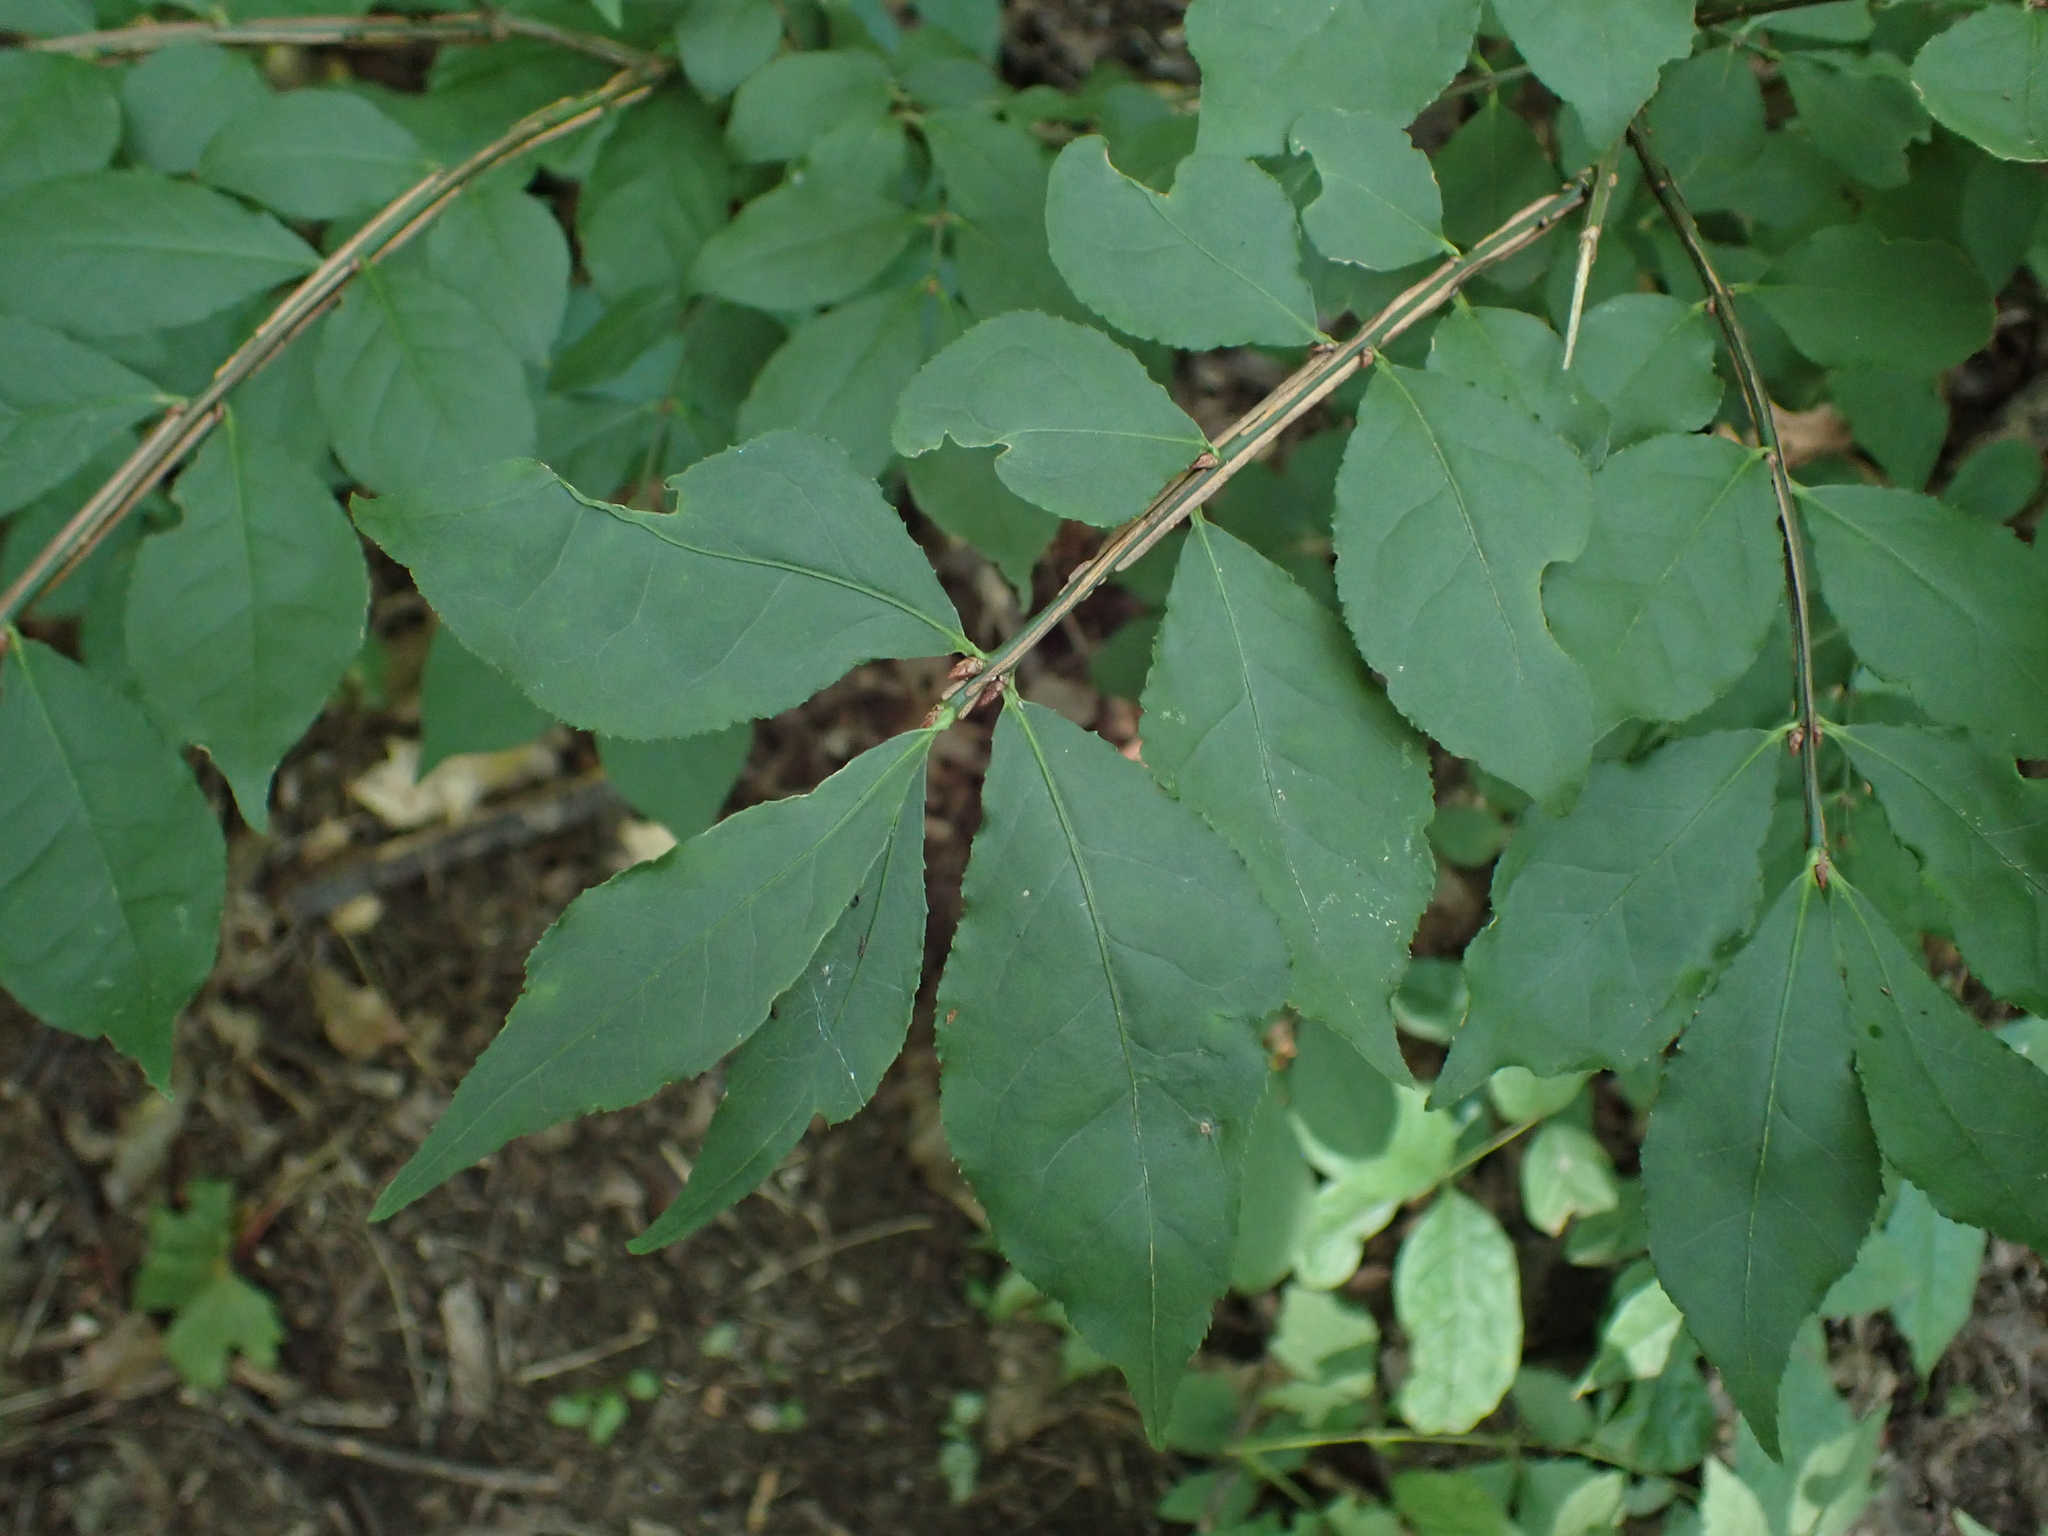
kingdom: Plantae
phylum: Tracheophyta
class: Magnoliopsida
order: Celastrales
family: Celastraceae
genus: Euonymus
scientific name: Euonymus alatus
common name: Winged euonymus
